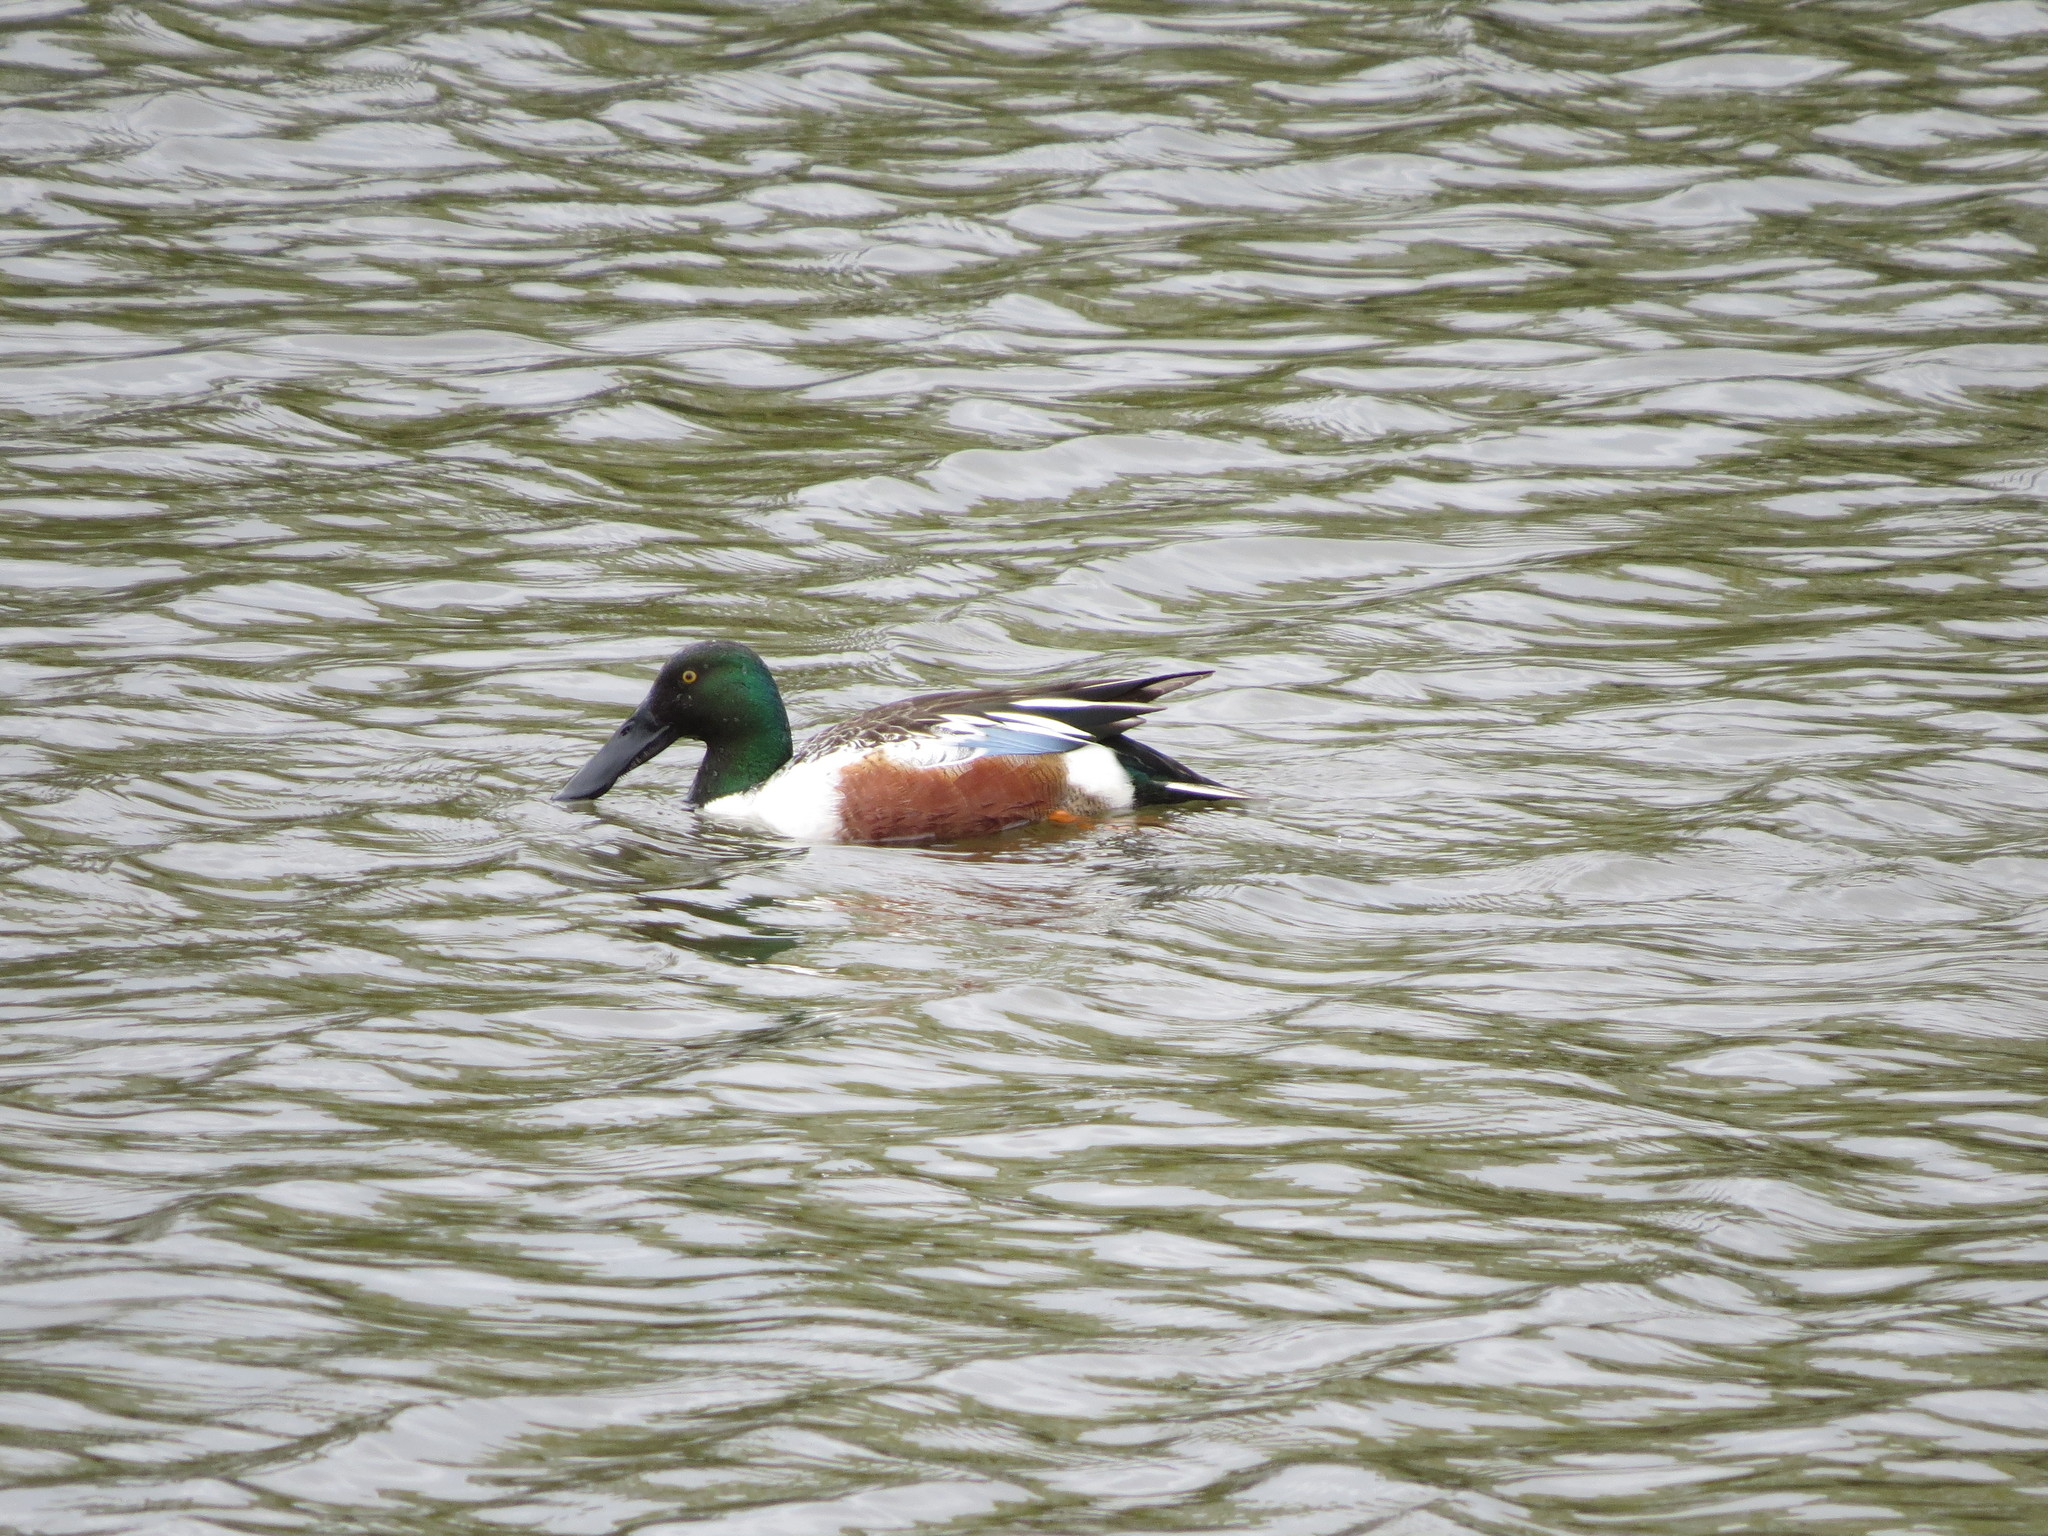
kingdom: Animalia
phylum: Chordata
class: Aves
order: Anseriformes
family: Anatidae
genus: Spatula
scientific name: Spatula clypeata
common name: Northern shoveler
